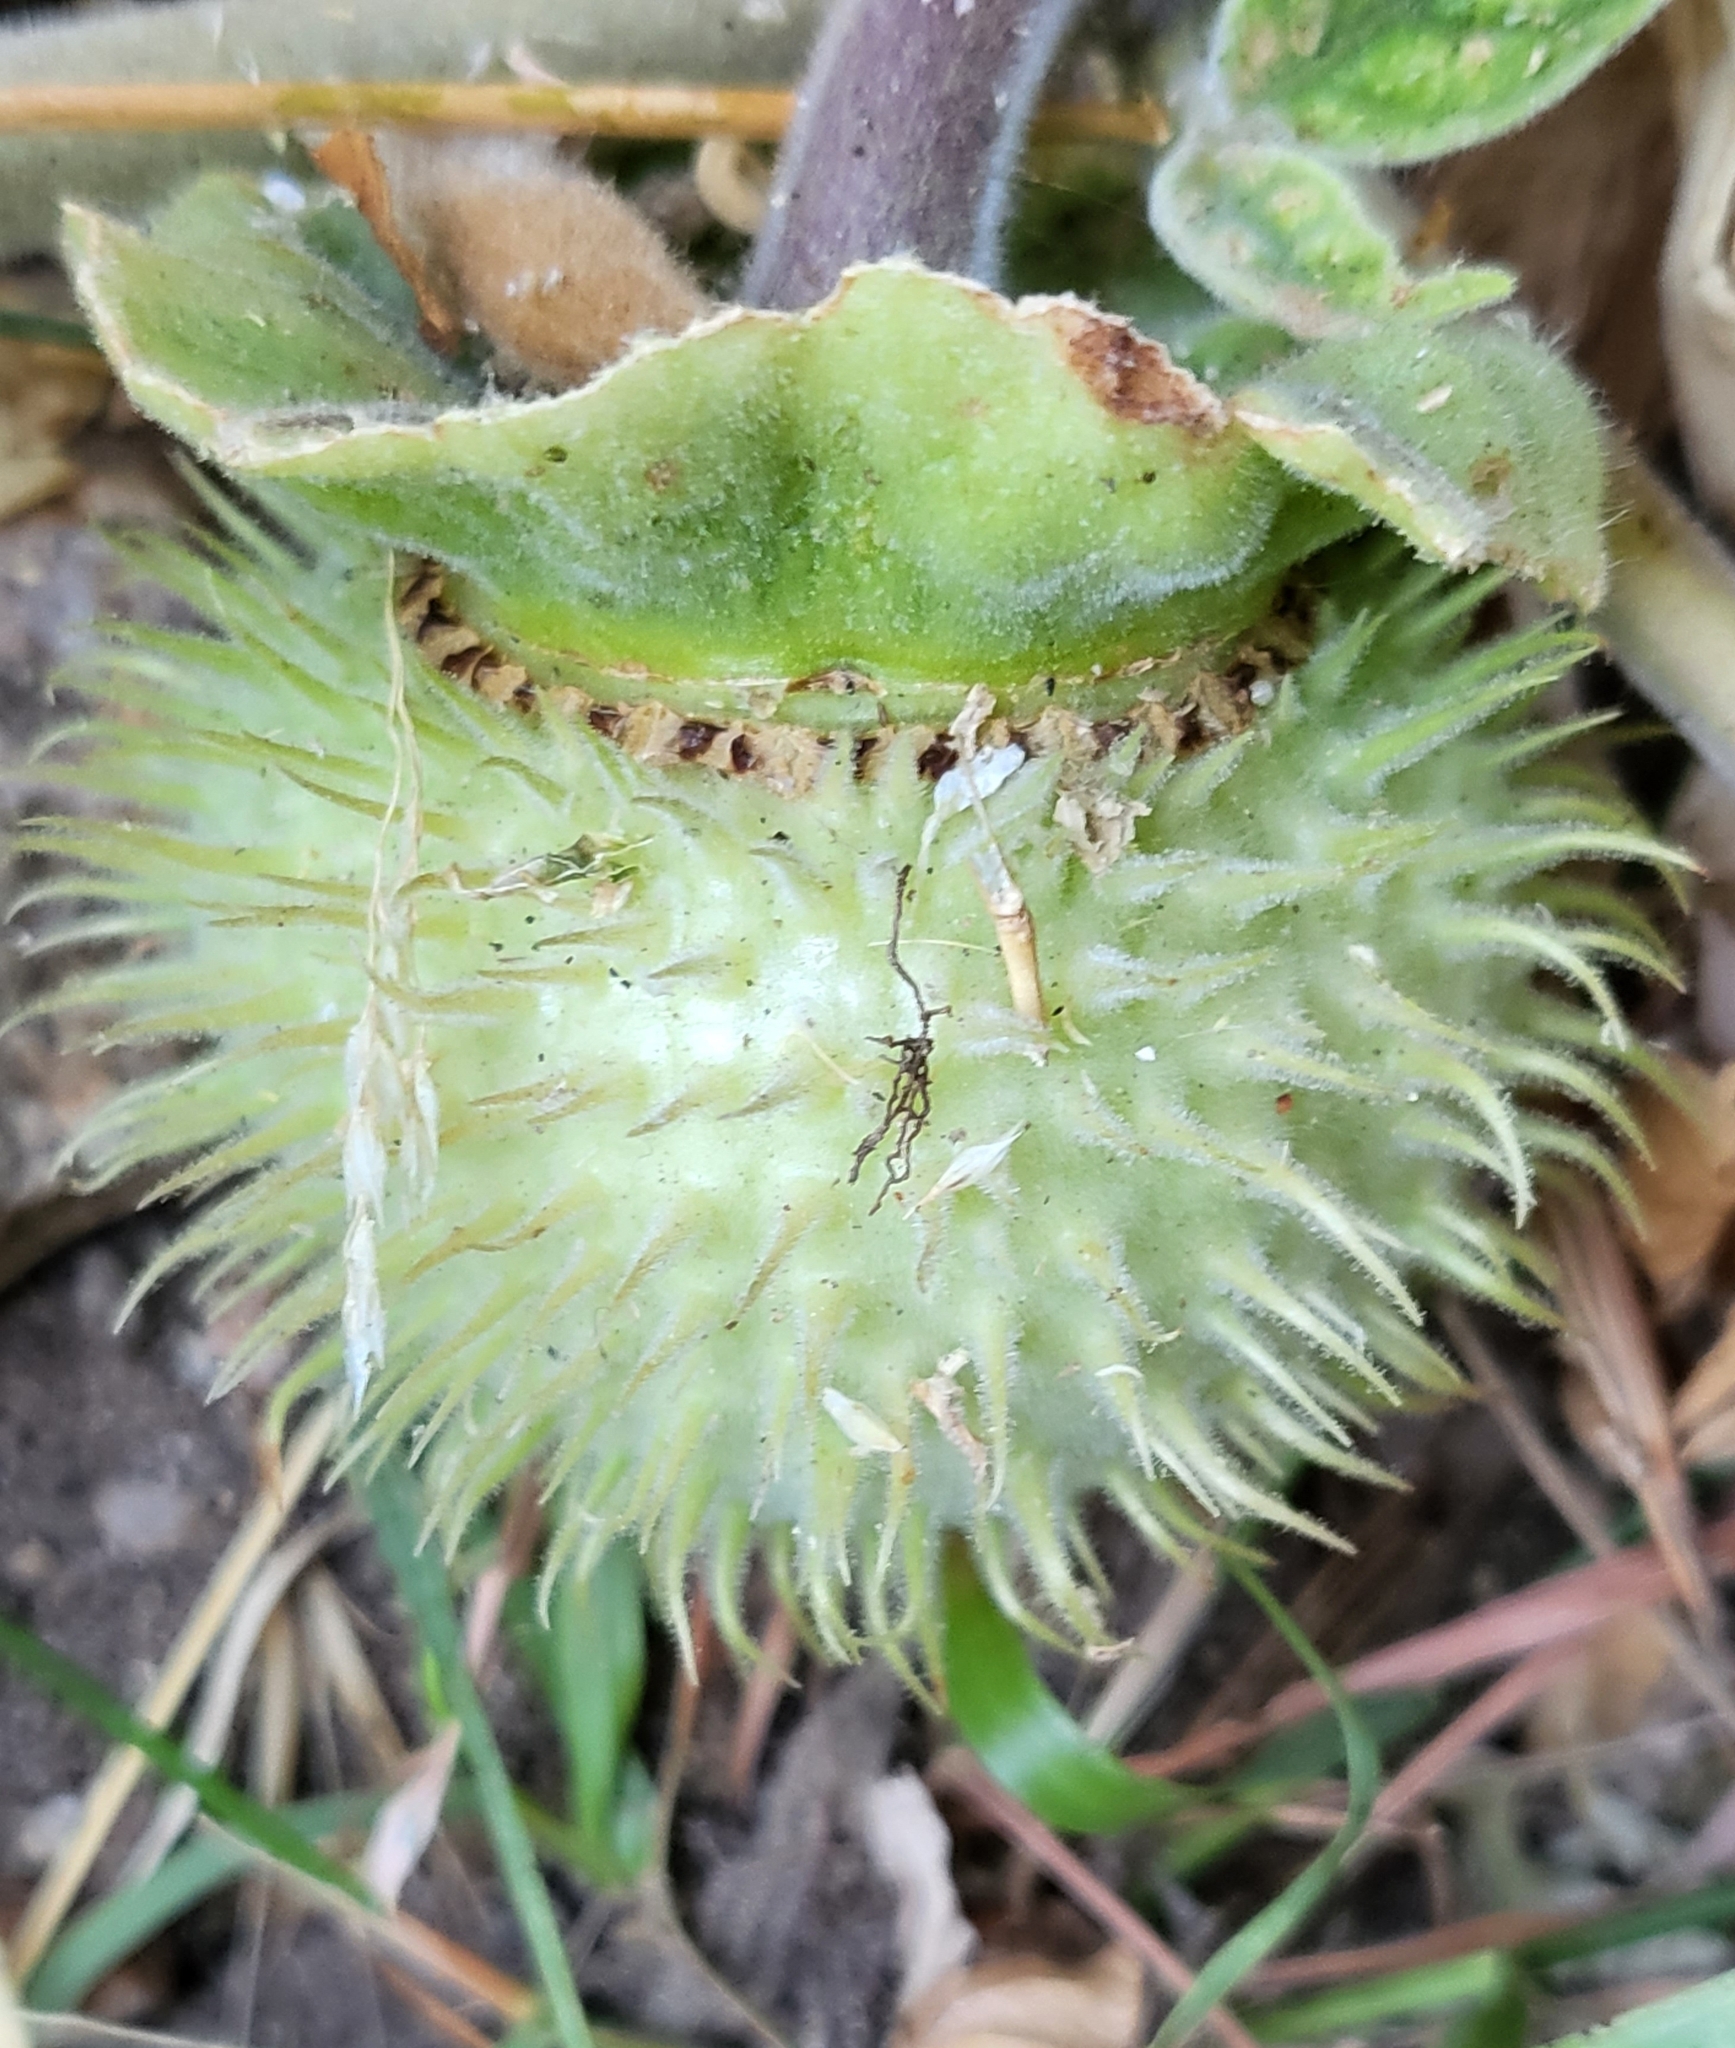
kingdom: Plantae
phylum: Tracheophyta
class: Magnoliopsida
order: Solanales
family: Solanaceae
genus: Datura
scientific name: Datura wrightii
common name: Sacred thorn-apple
